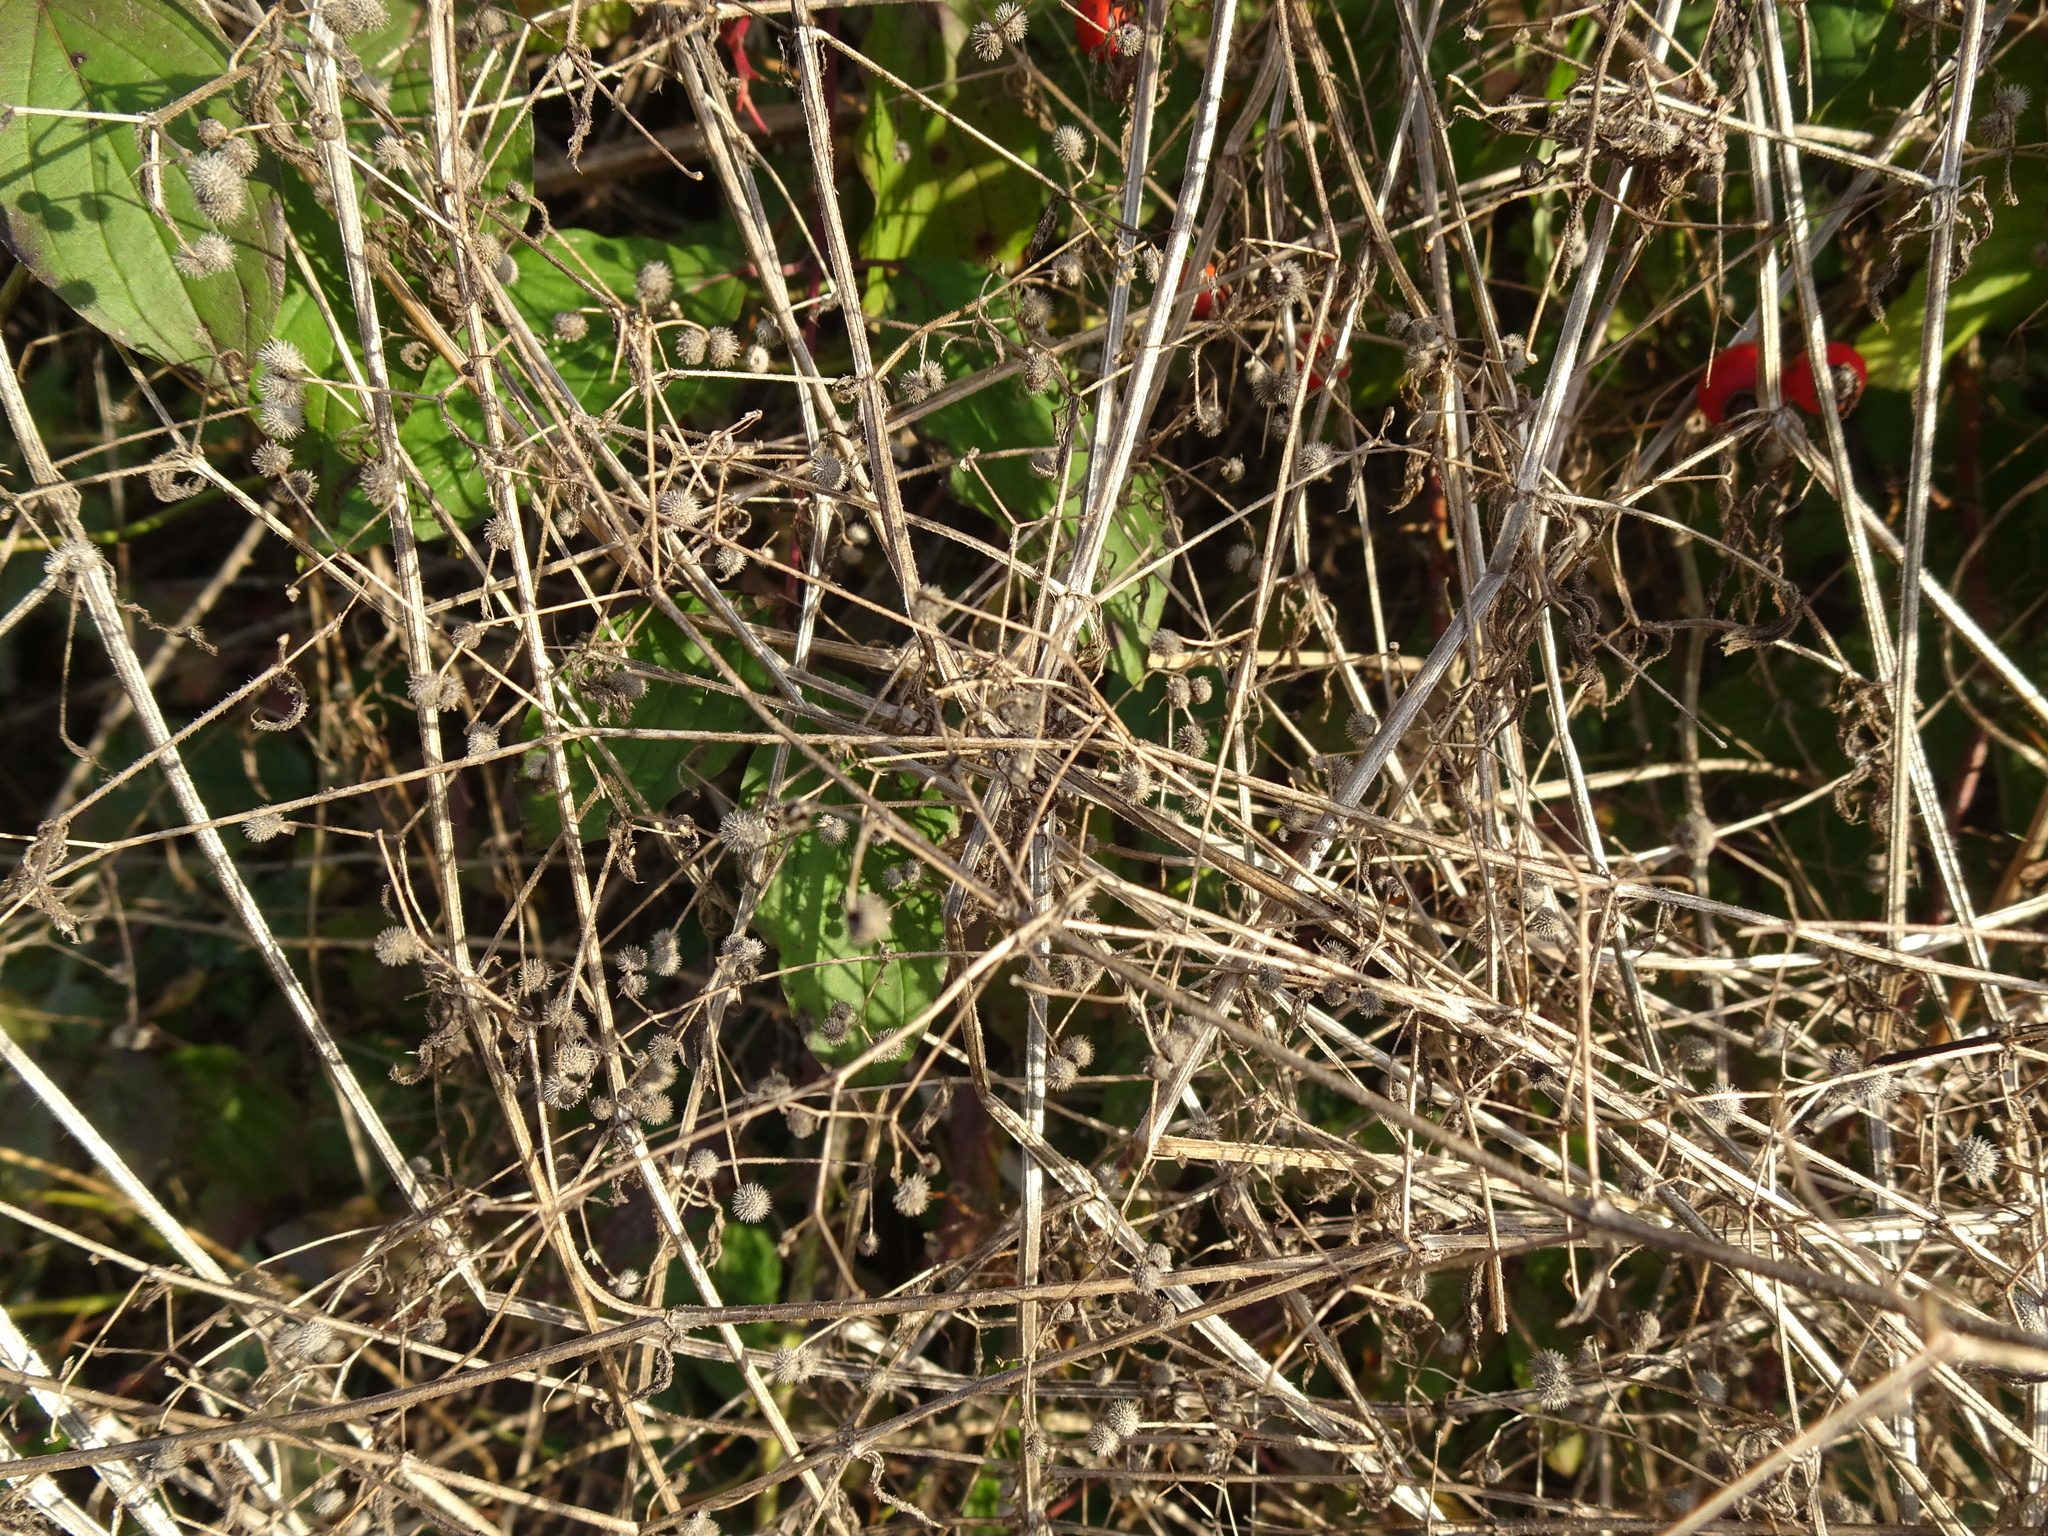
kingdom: Plantae
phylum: Tracheophyta
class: Magnoliopsida
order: Gentianales
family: Rubiaceae
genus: Galium
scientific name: Galium aparine
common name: Cleavers
